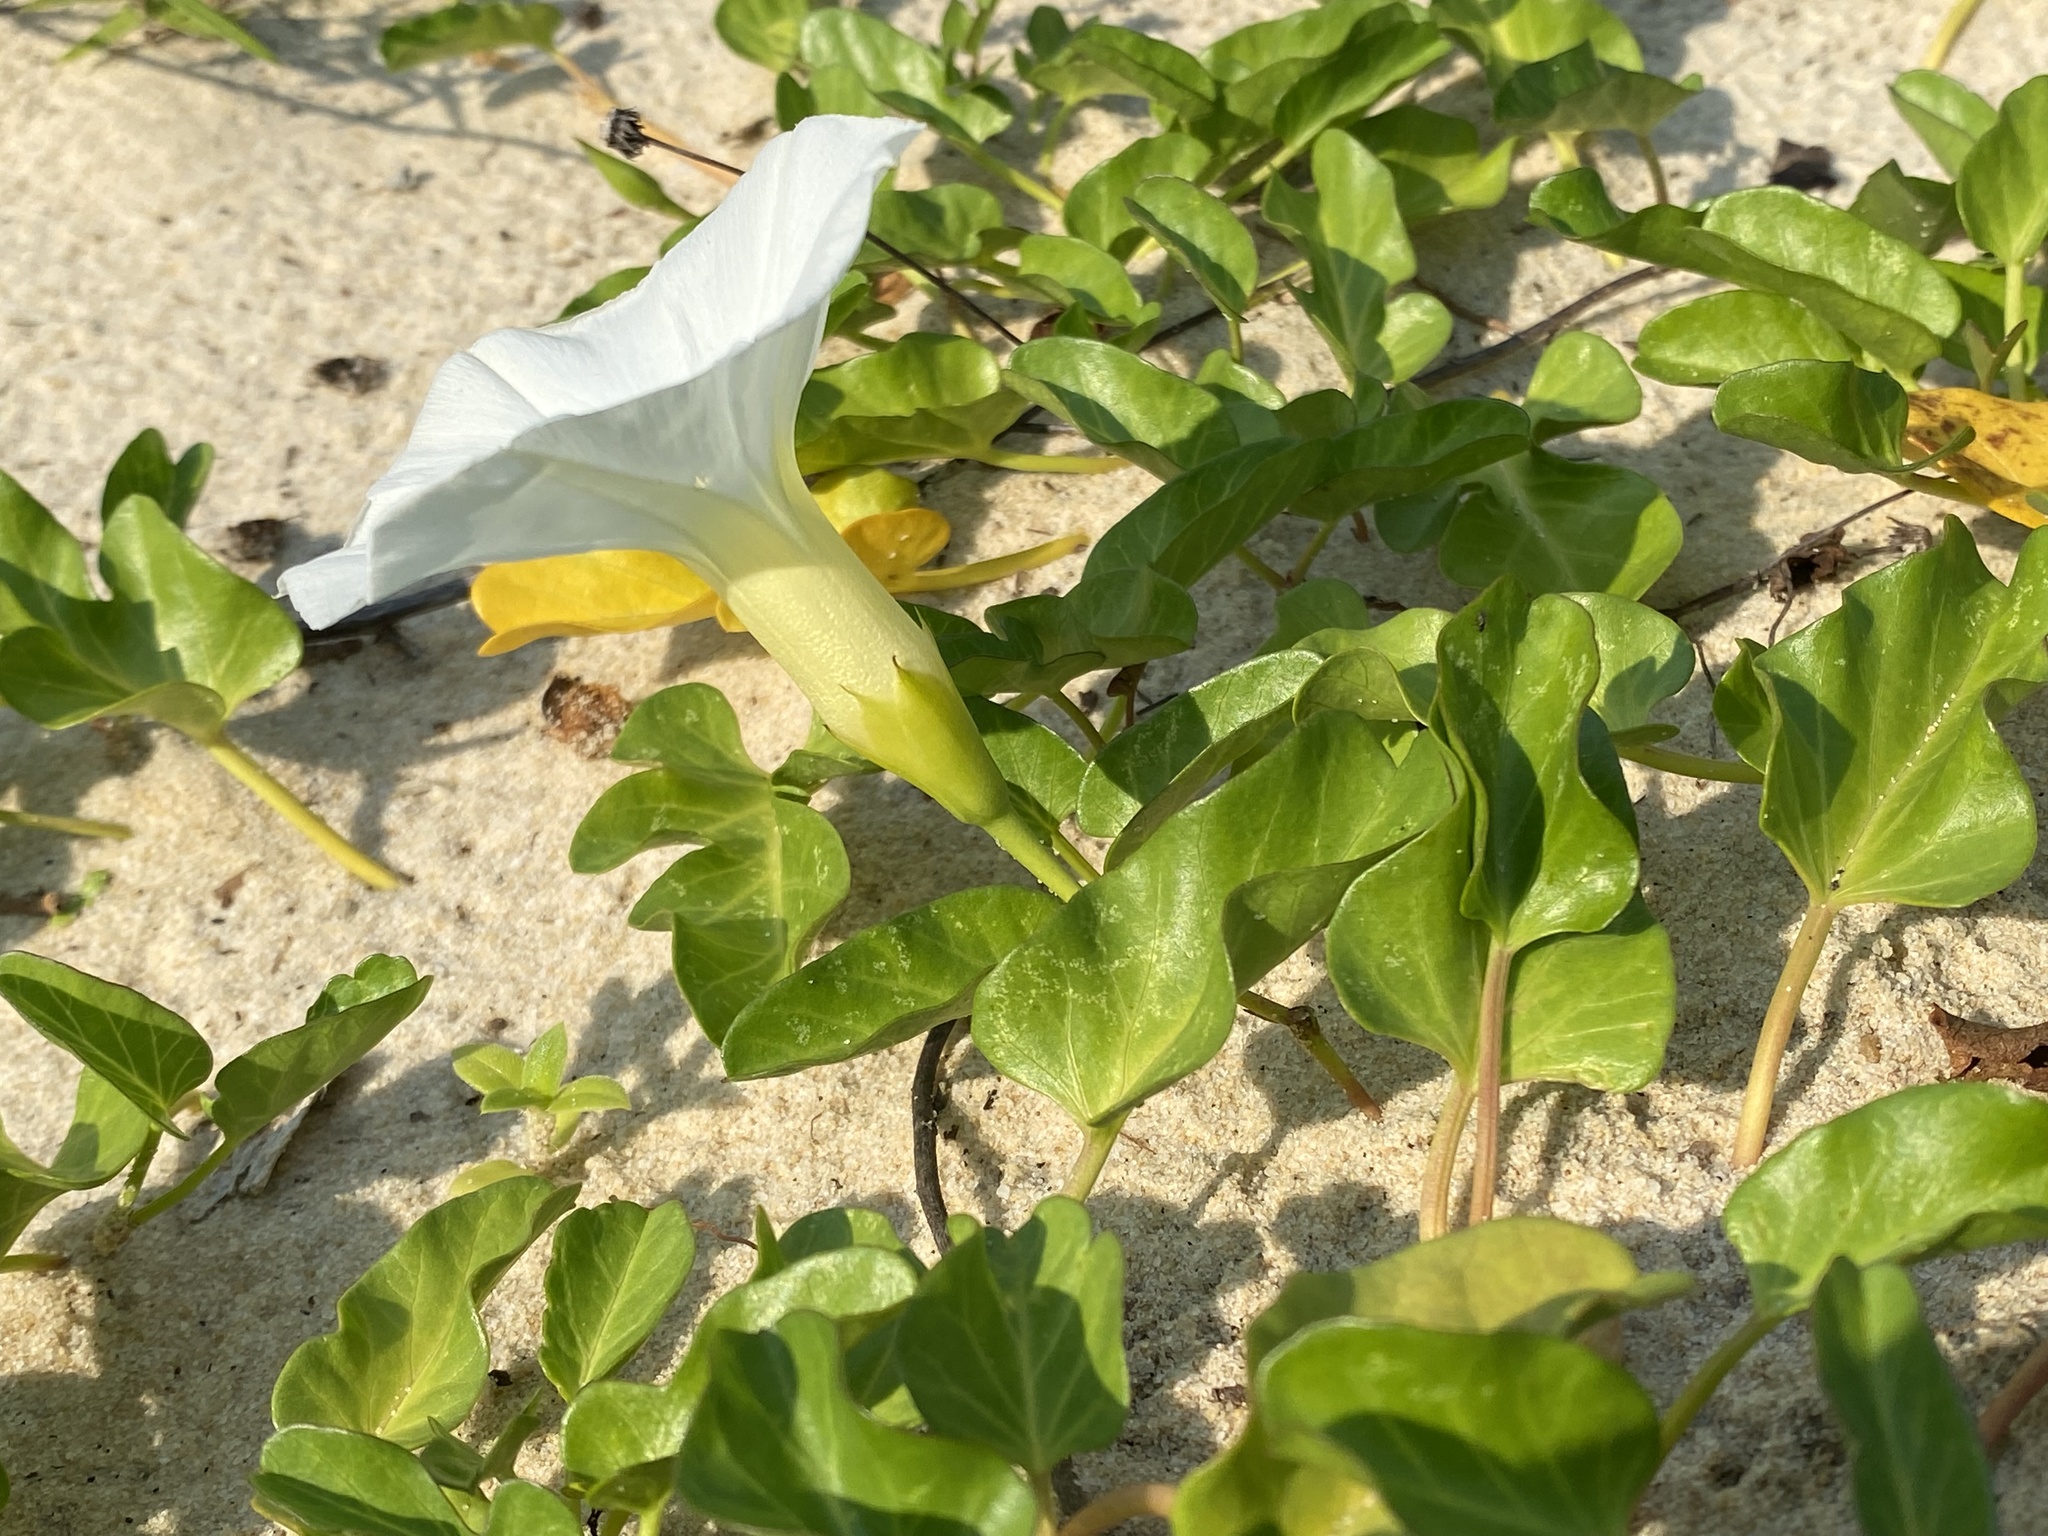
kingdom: Plantae
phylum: Tracheophyta
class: Magnoliopsida
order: Solanales
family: Convolvulaceae
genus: Ipomoea
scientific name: Ipomoea imperati
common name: Fiddle-leaf morning-glory
